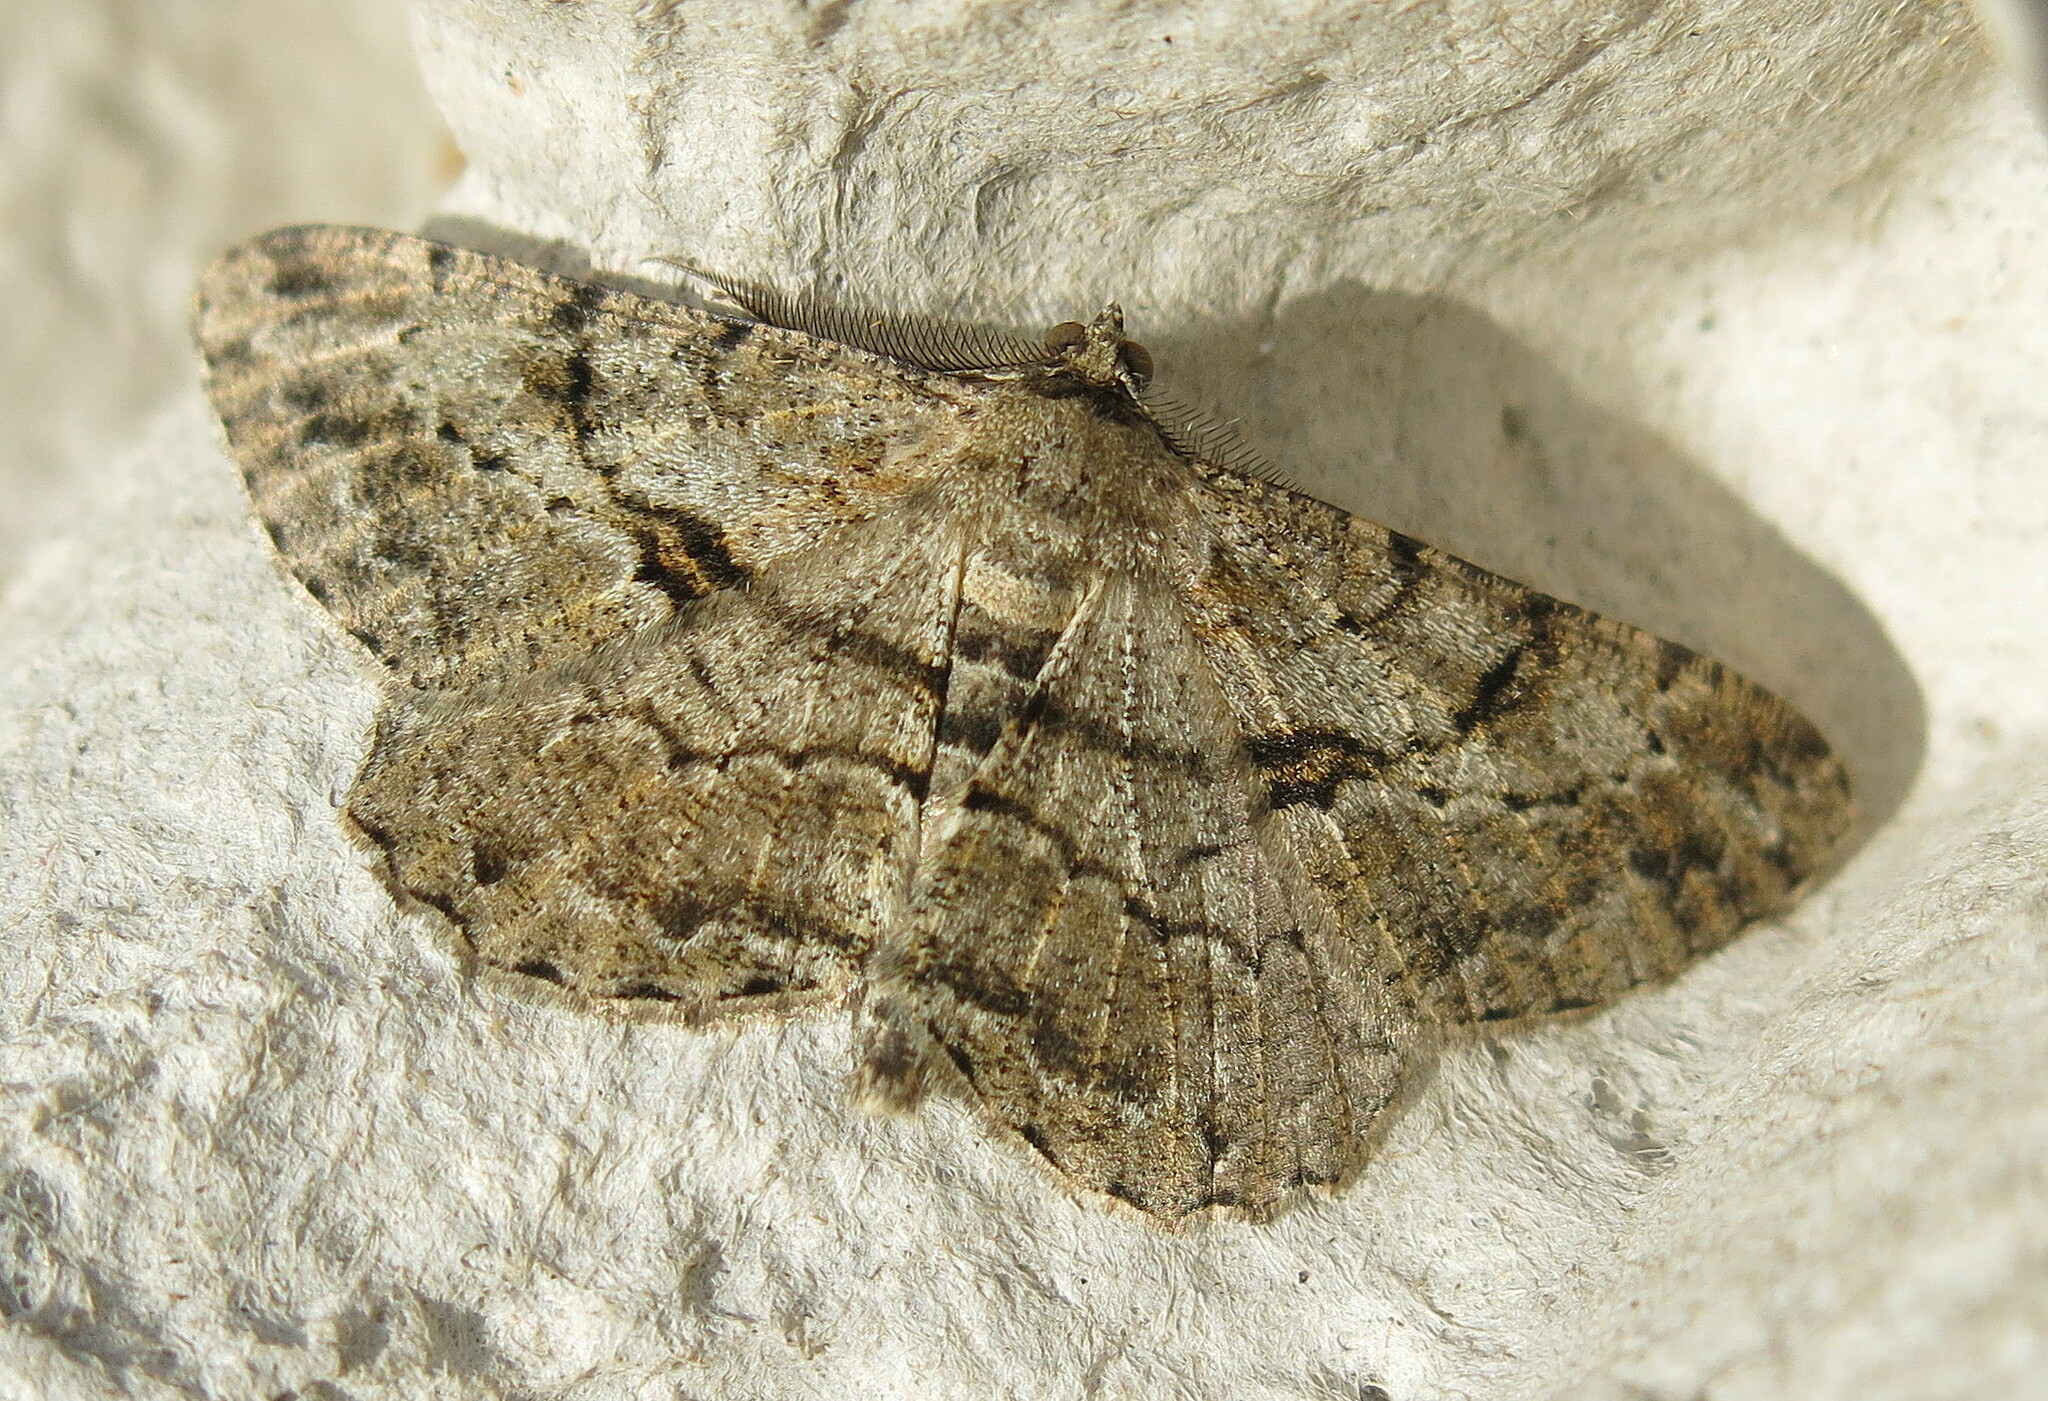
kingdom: Animalia
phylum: Arthropoda
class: Insecta
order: Lepidoptera
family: Geometridae
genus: Peribatodes
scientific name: Peribatodes rhomboidaria
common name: Willow beauty
